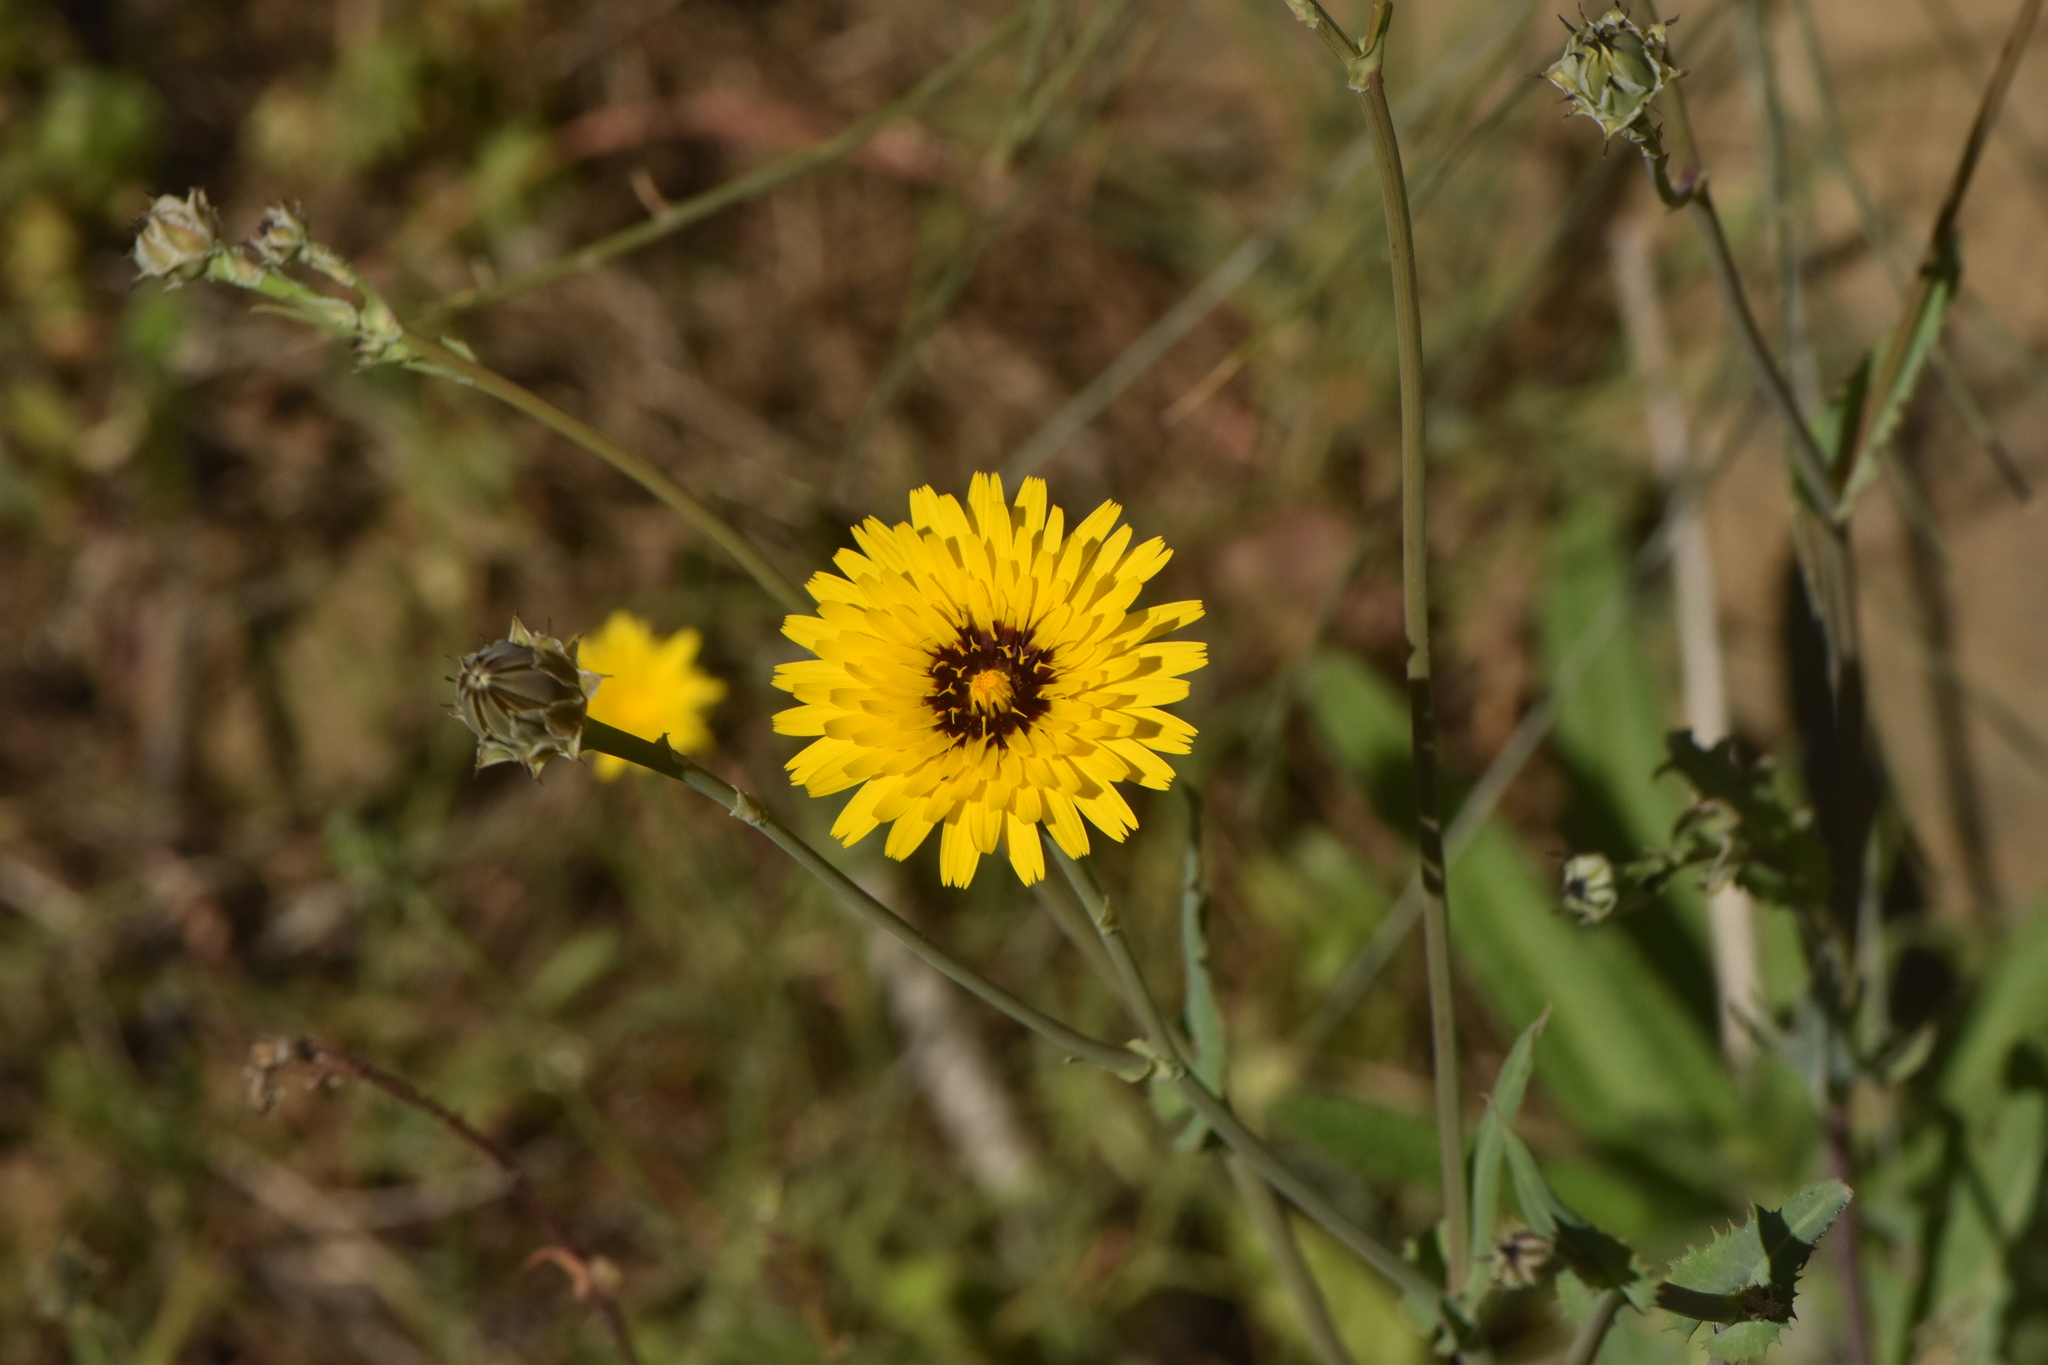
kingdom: Plantae
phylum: Tracheophyta
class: Magnoliopsida
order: Asterales
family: Asteraceae
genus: Reichardia
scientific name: Reichardia tingitana
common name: Reichardia
